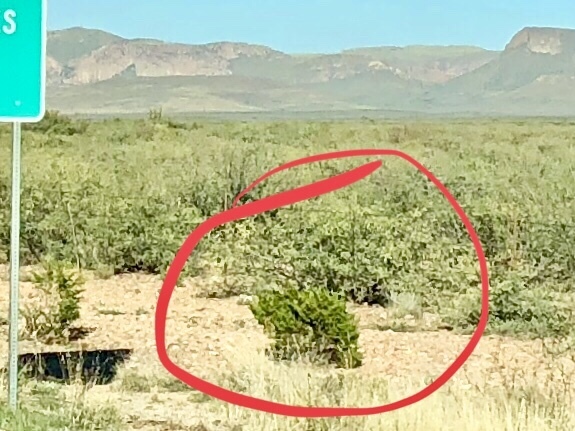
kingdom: Plantae
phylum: Tracheophyta
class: Magnoliopsida
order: Zygophyllales
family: Zygophyllaceae
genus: Larrea
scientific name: Larrea tridentata
